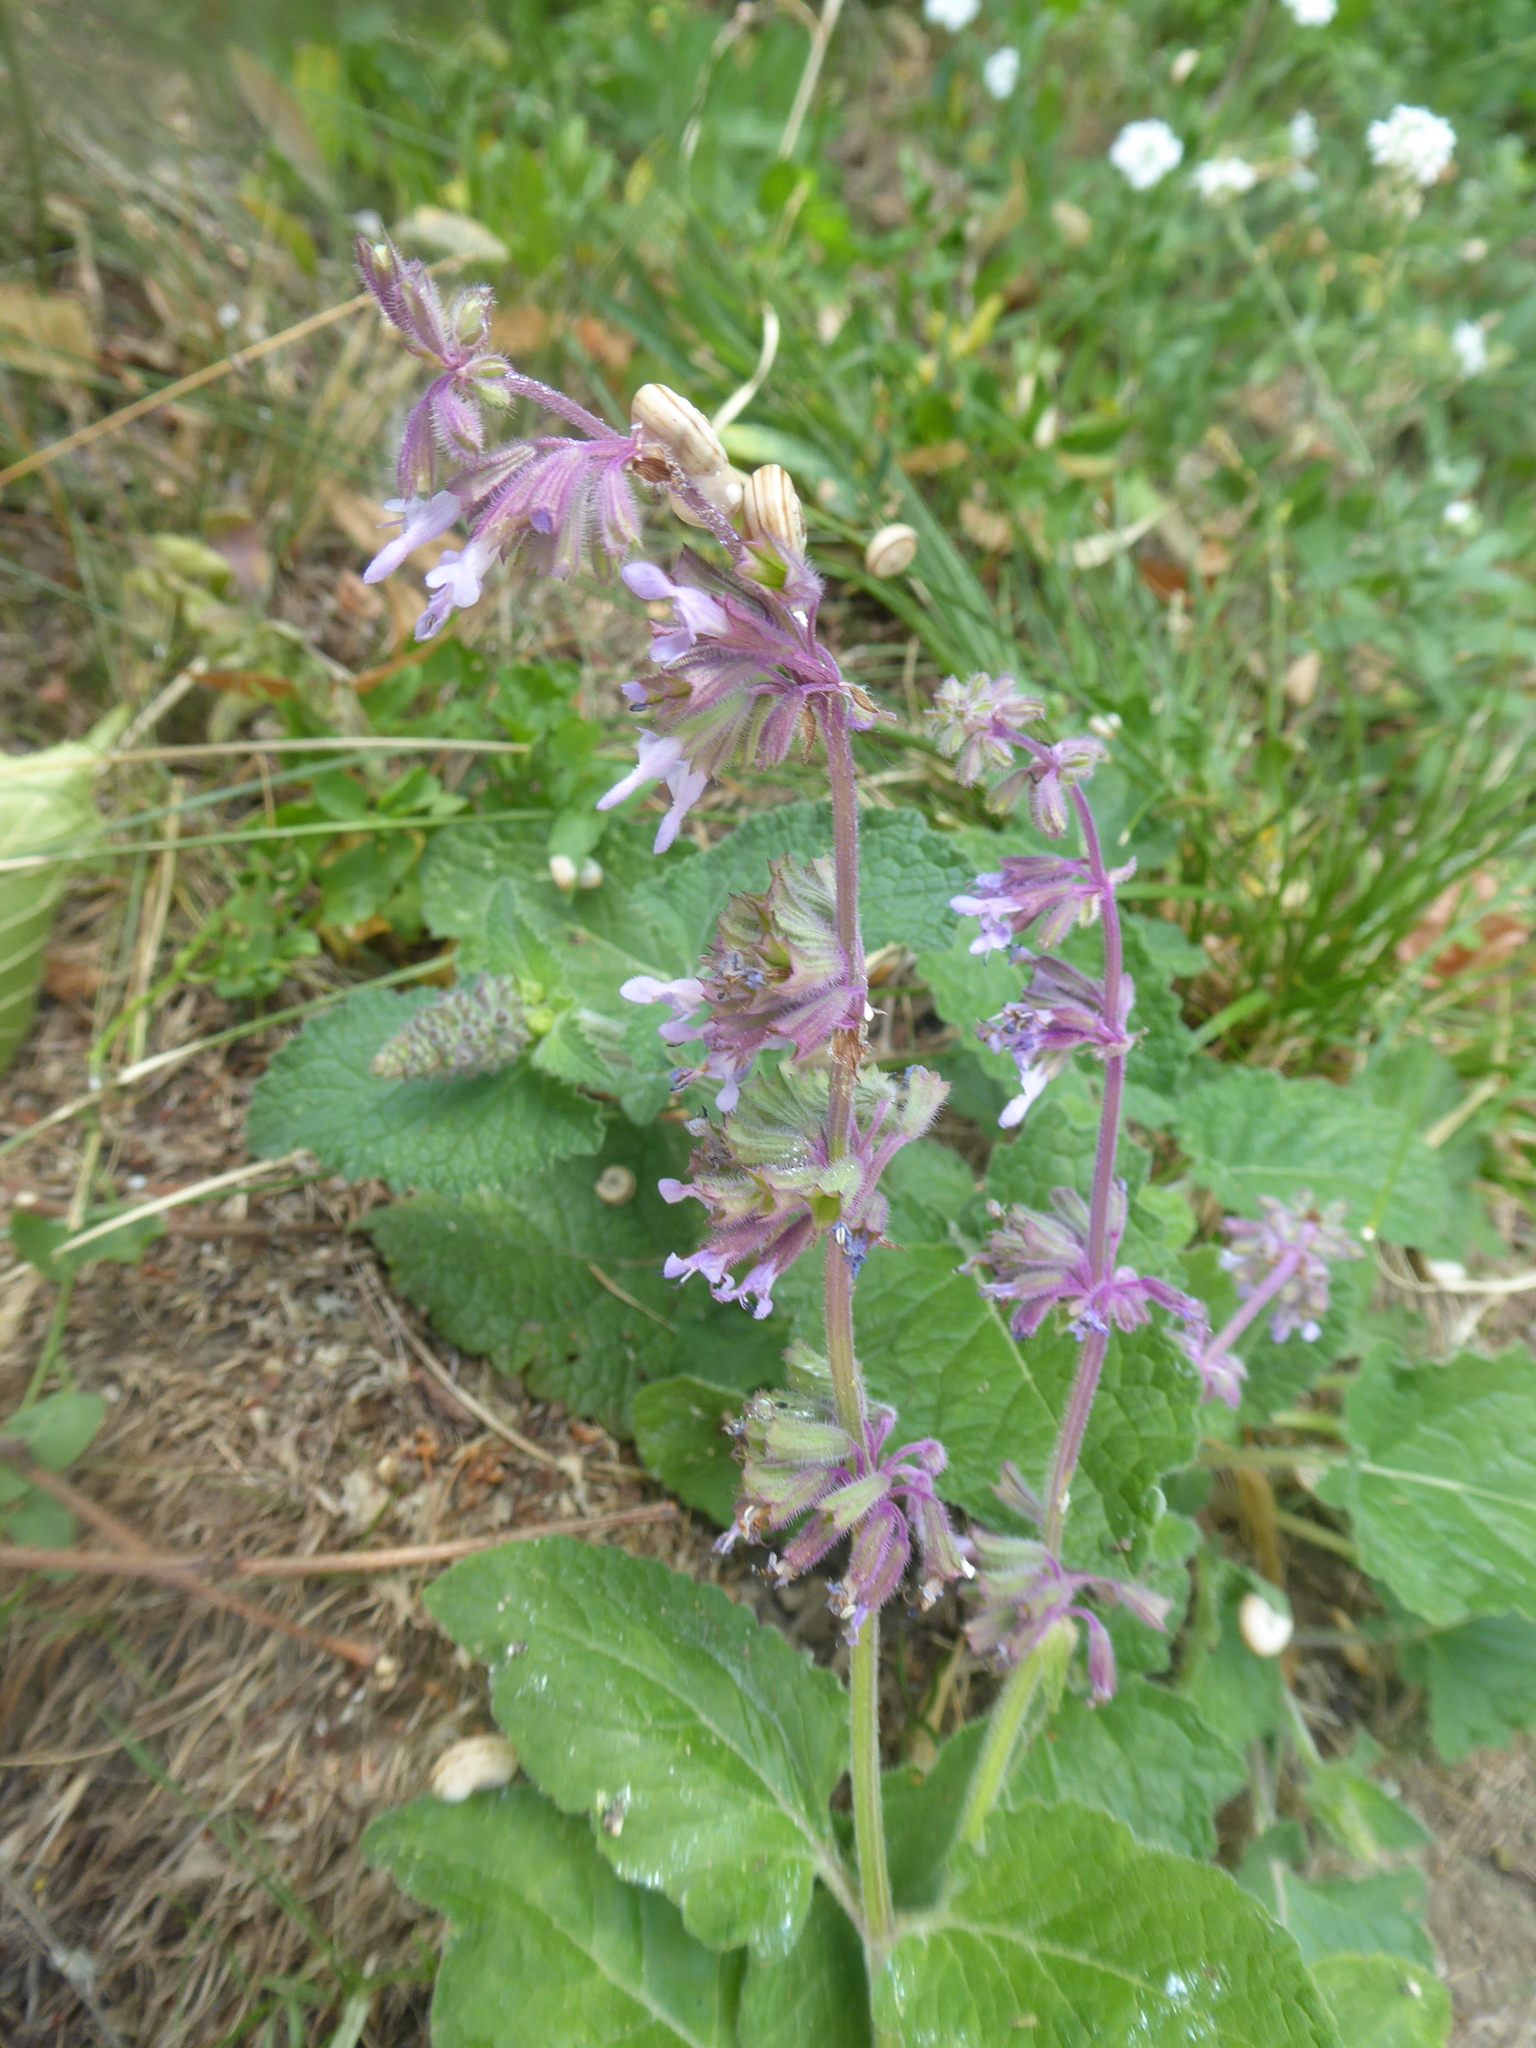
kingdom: Plantae
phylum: Tracheophyta
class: Magnoliopsida
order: Lamiales
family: Lamiaceae
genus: Salvia
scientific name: Salvia verticillata
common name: Whorled clary
